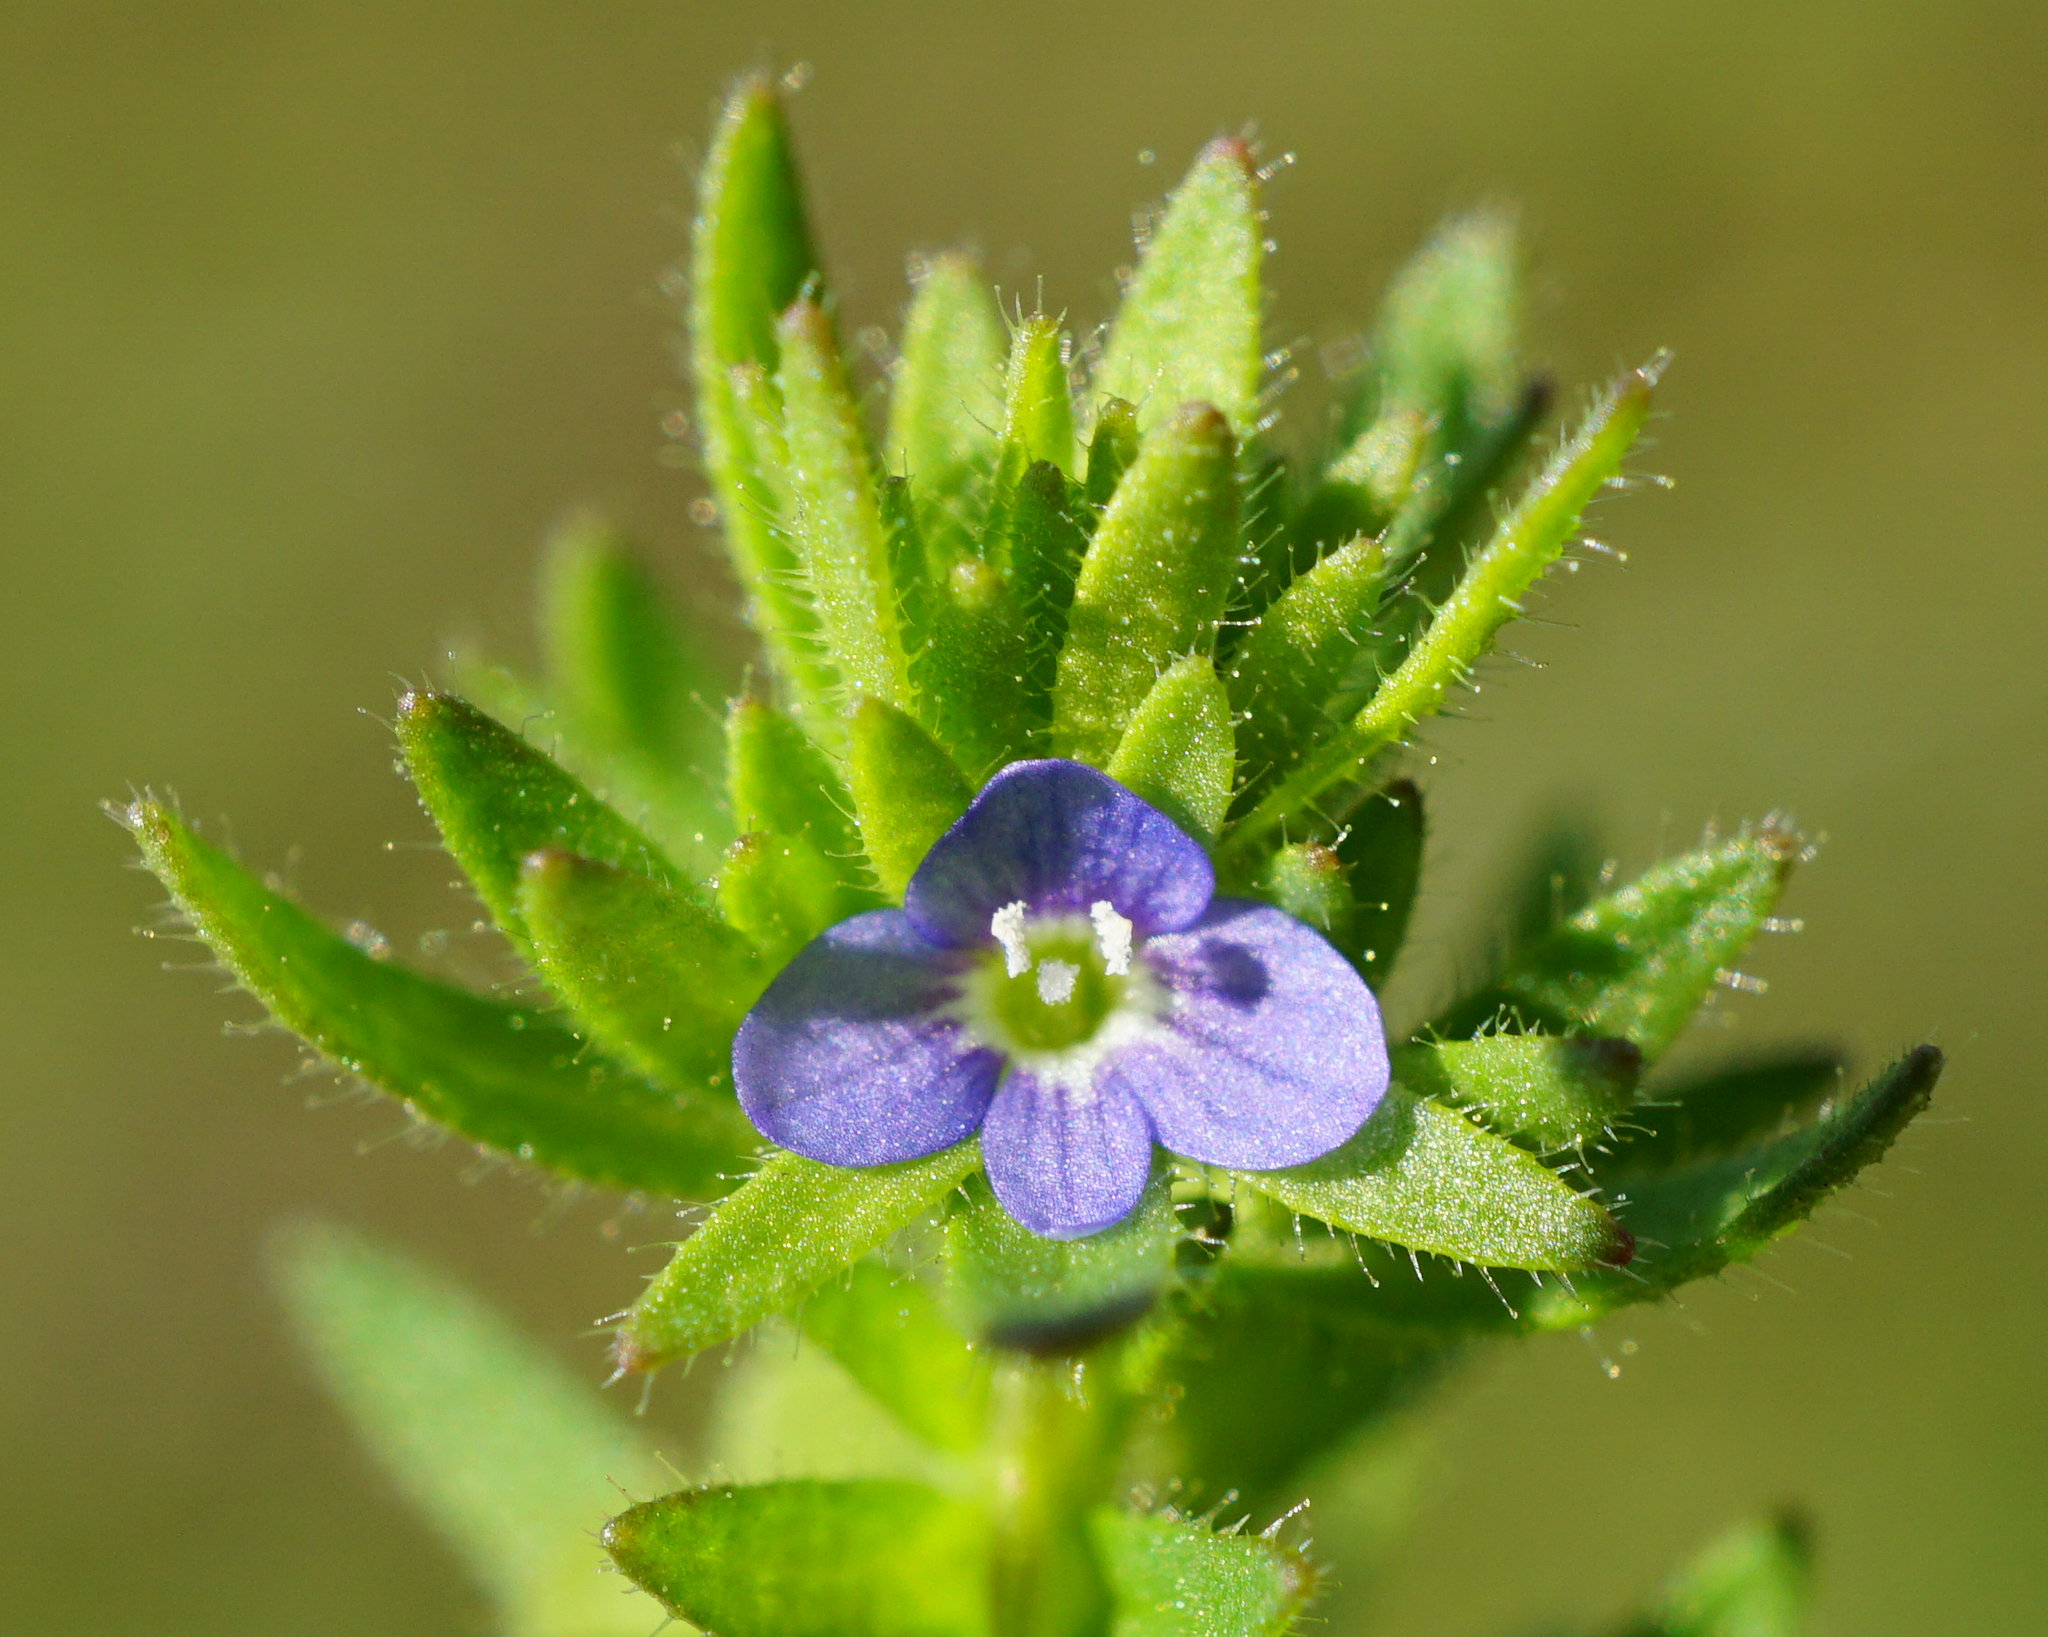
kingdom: Plantae
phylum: Tracheophyta
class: Magnoliopsida
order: Lamiales
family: Plantaginaceae
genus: Veronica
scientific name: Veronica arvensis
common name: Corn speedwell
